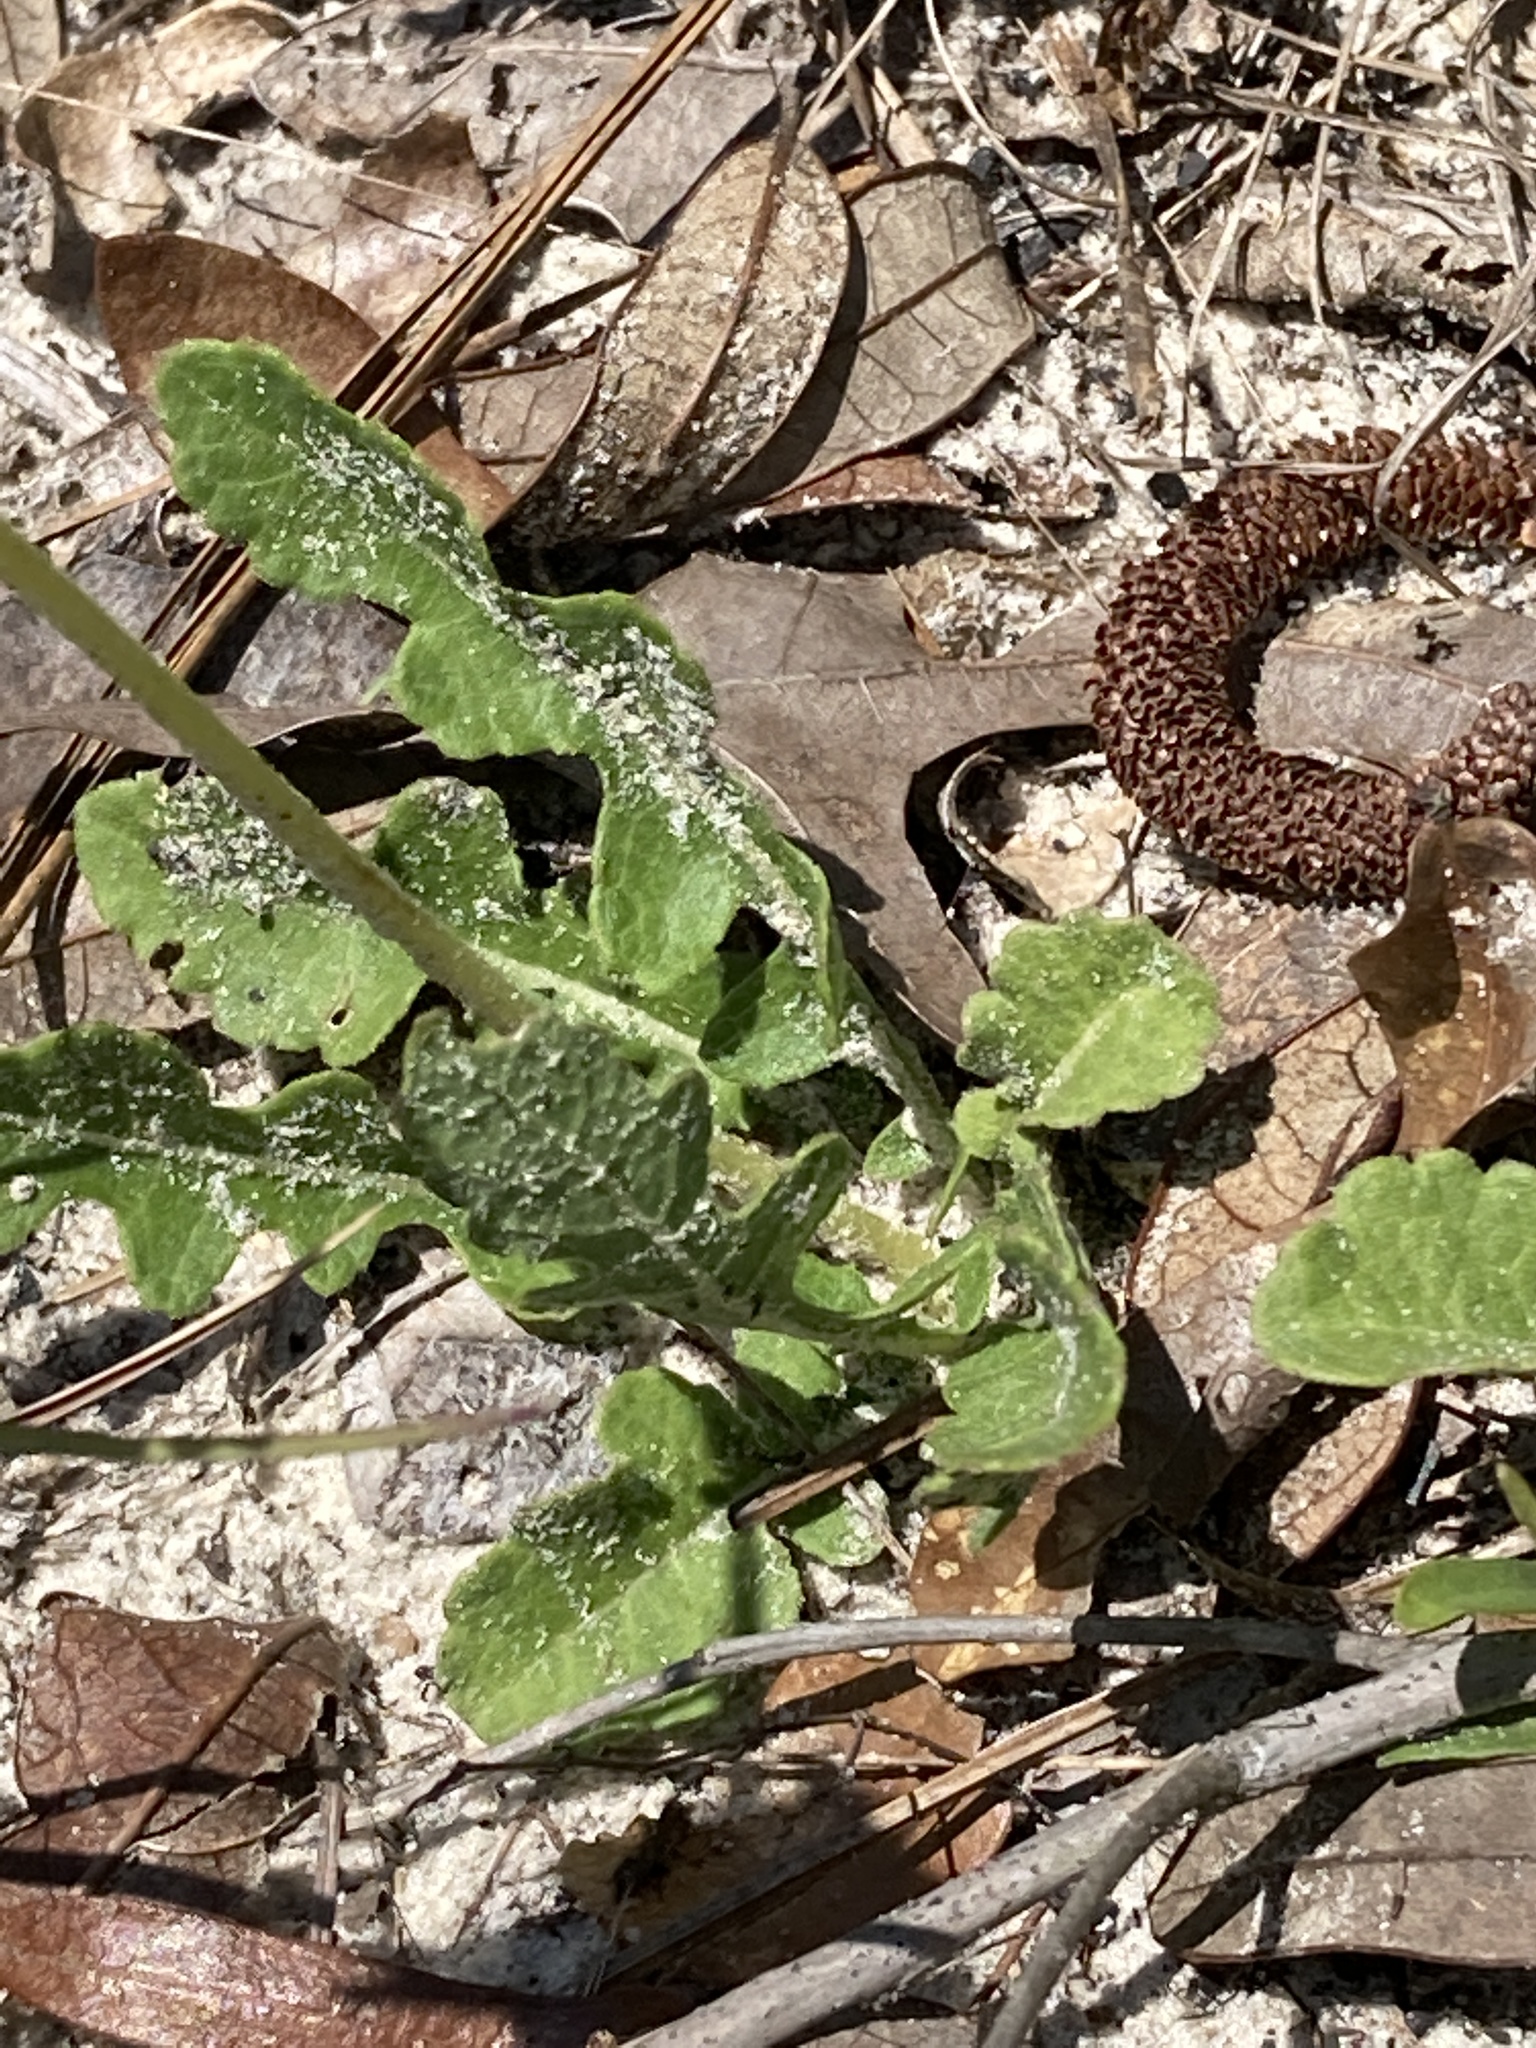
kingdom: Plantae
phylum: Tracheophyta
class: Magnoliopsida
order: Asterales
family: Asteraceae
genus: Berlandiera
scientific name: Berlandiera subacaulis
